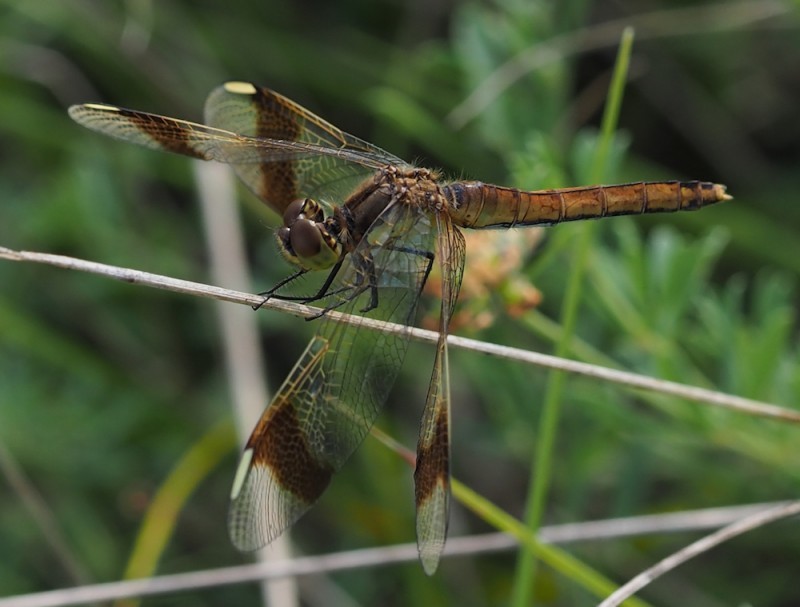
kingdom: Animalia
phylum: Arthropoda
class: Insecta
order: Odonata
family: Libellulidae
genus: Sympetrum
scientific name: Sympetrum pedemontanum
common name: Banded darter
